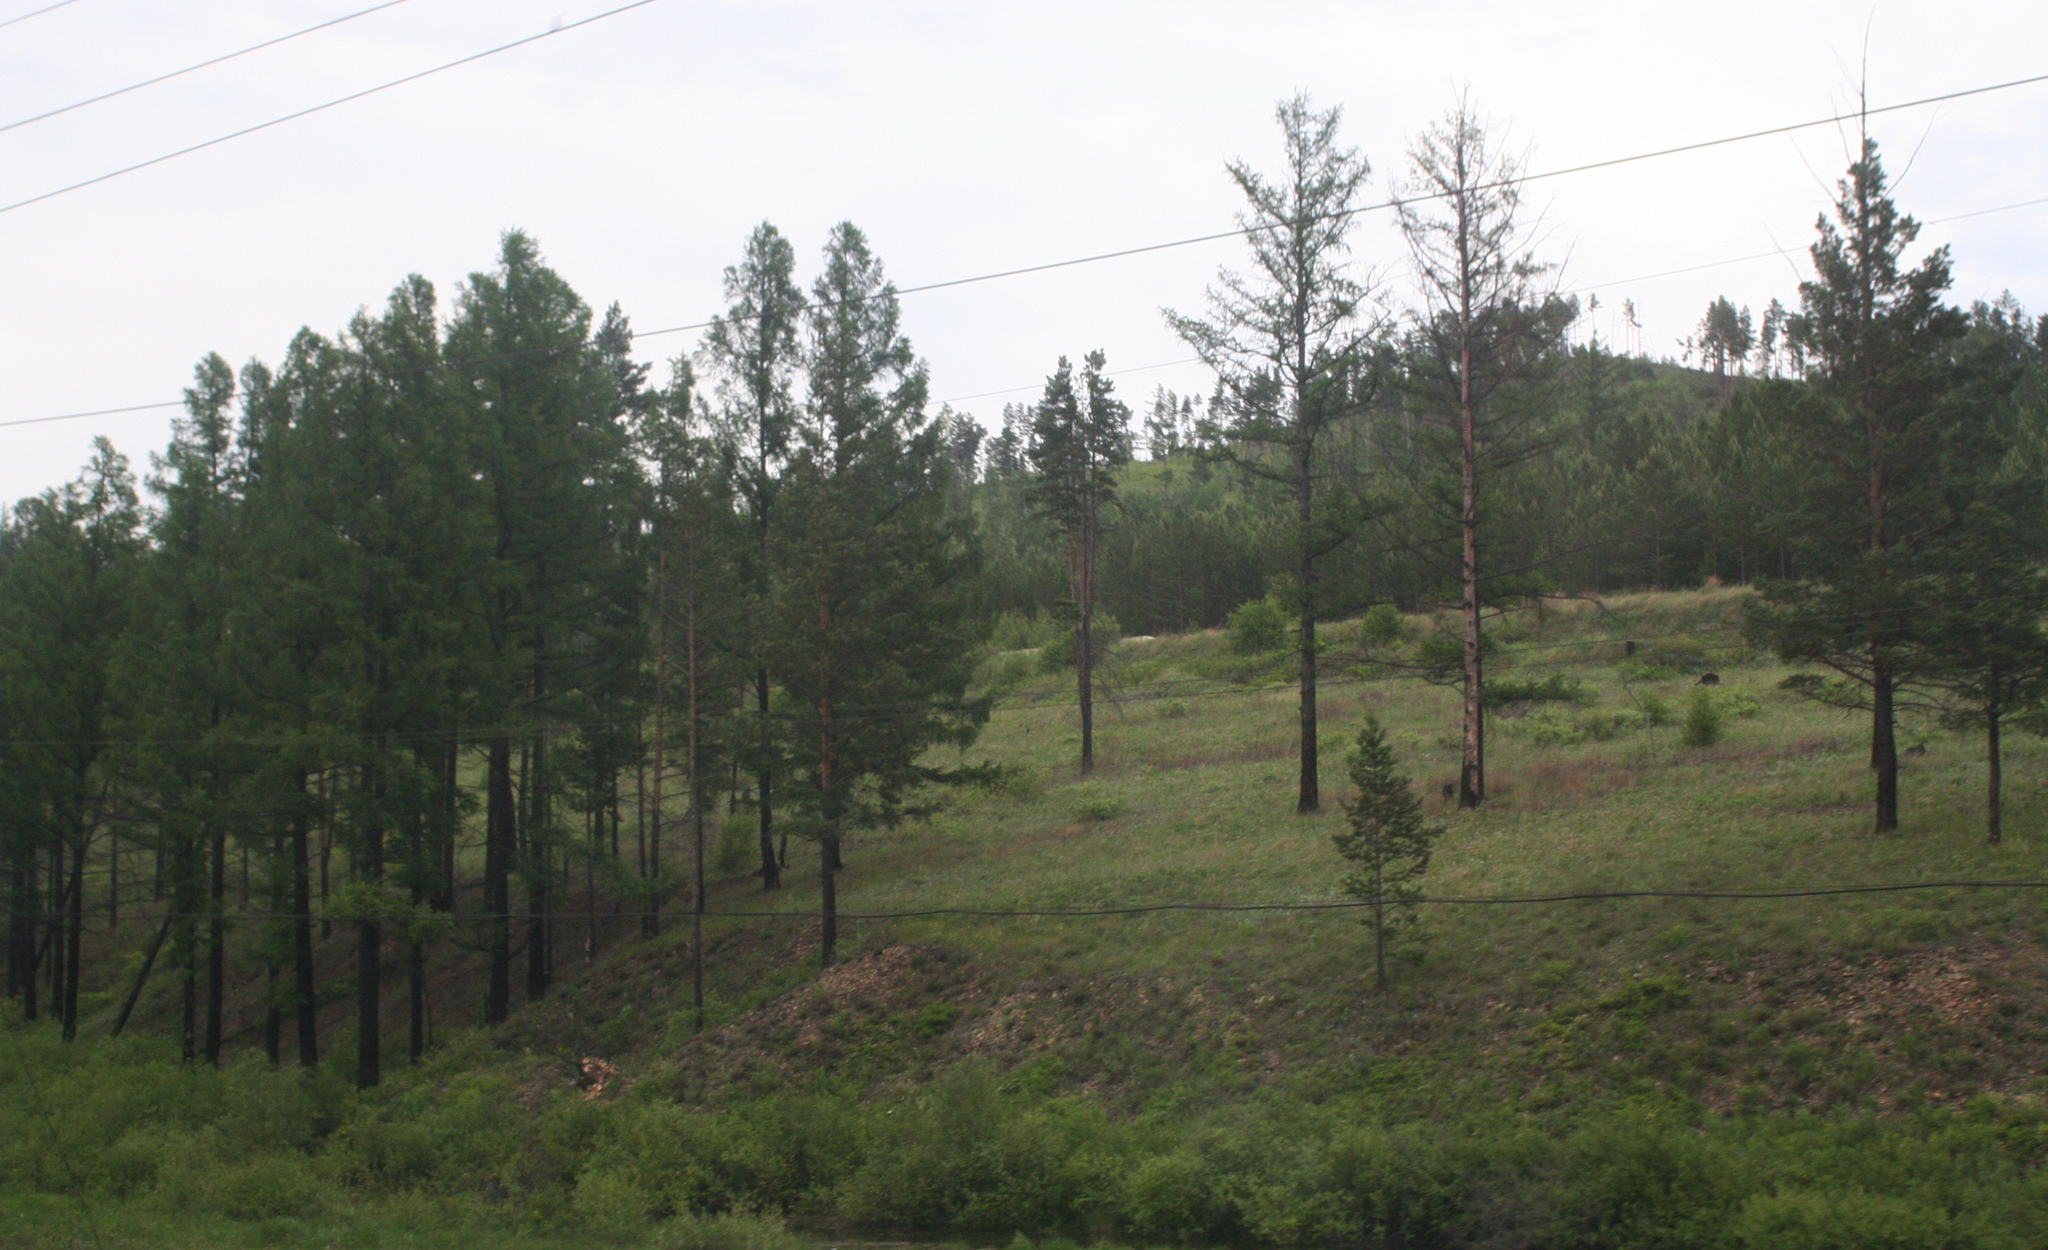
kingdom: Plantae
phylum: Tracheophyta
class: Pinopsida
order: Pinales
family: Pinaceae
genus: Larix
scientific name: Larix sibirica
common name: Siberian larch
